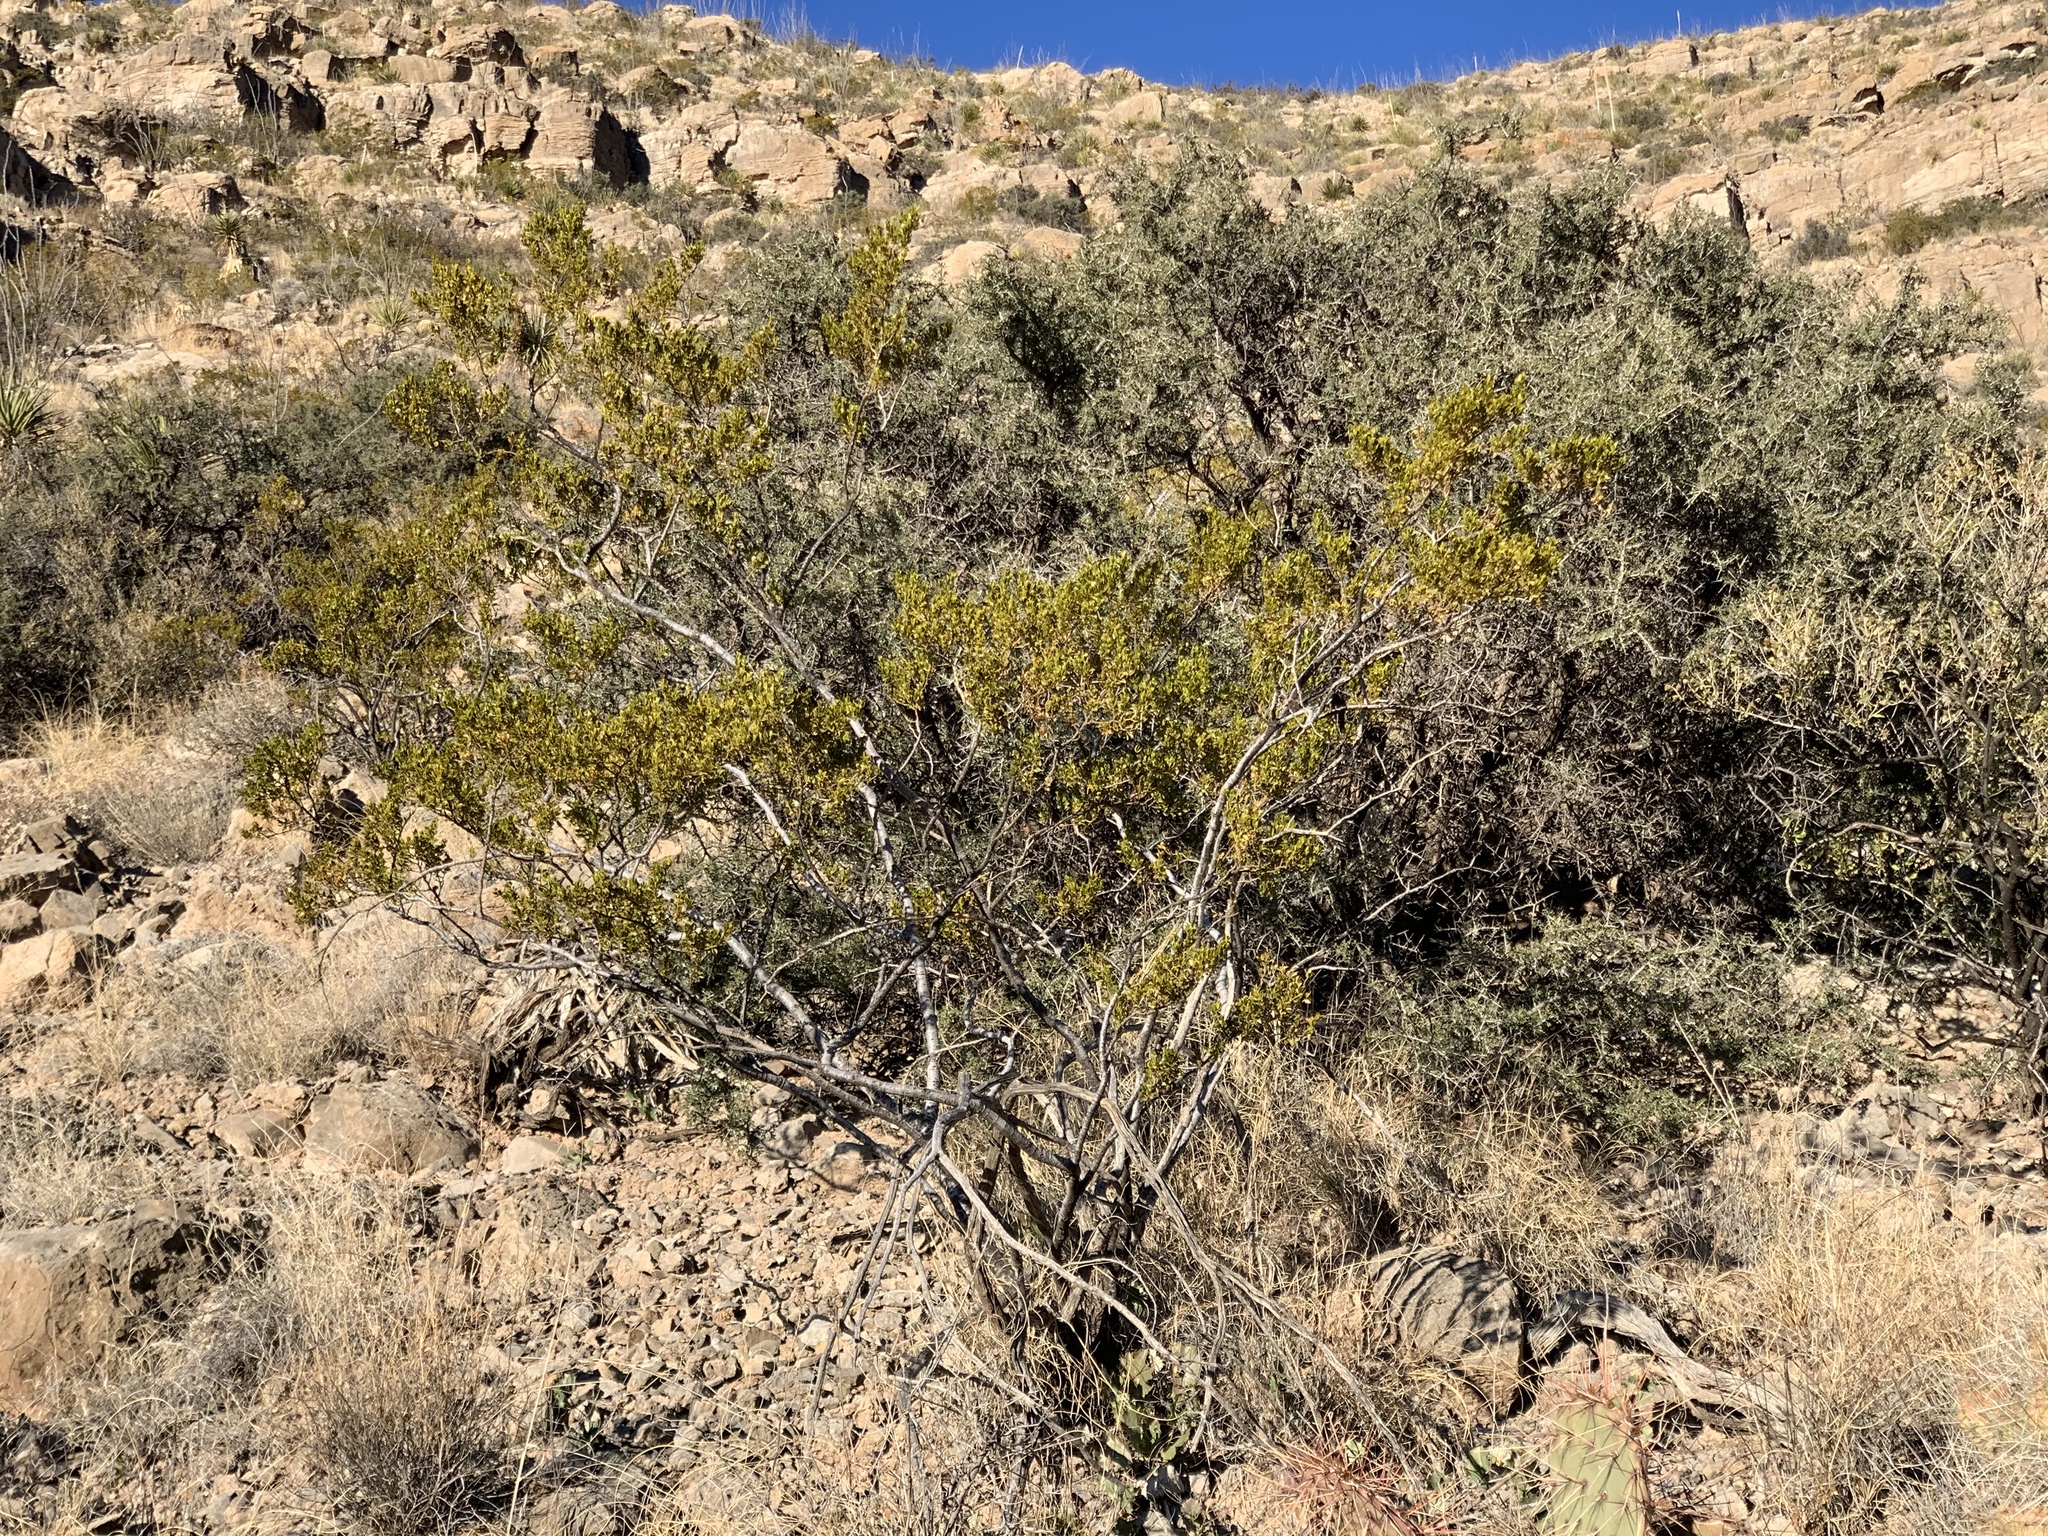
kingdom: Plantae
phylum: Tracheophyta
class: Magnoliopsida
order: Zygophyllales
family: Zygophyllaceae
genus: Larrea
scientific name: Larrea tridentata
